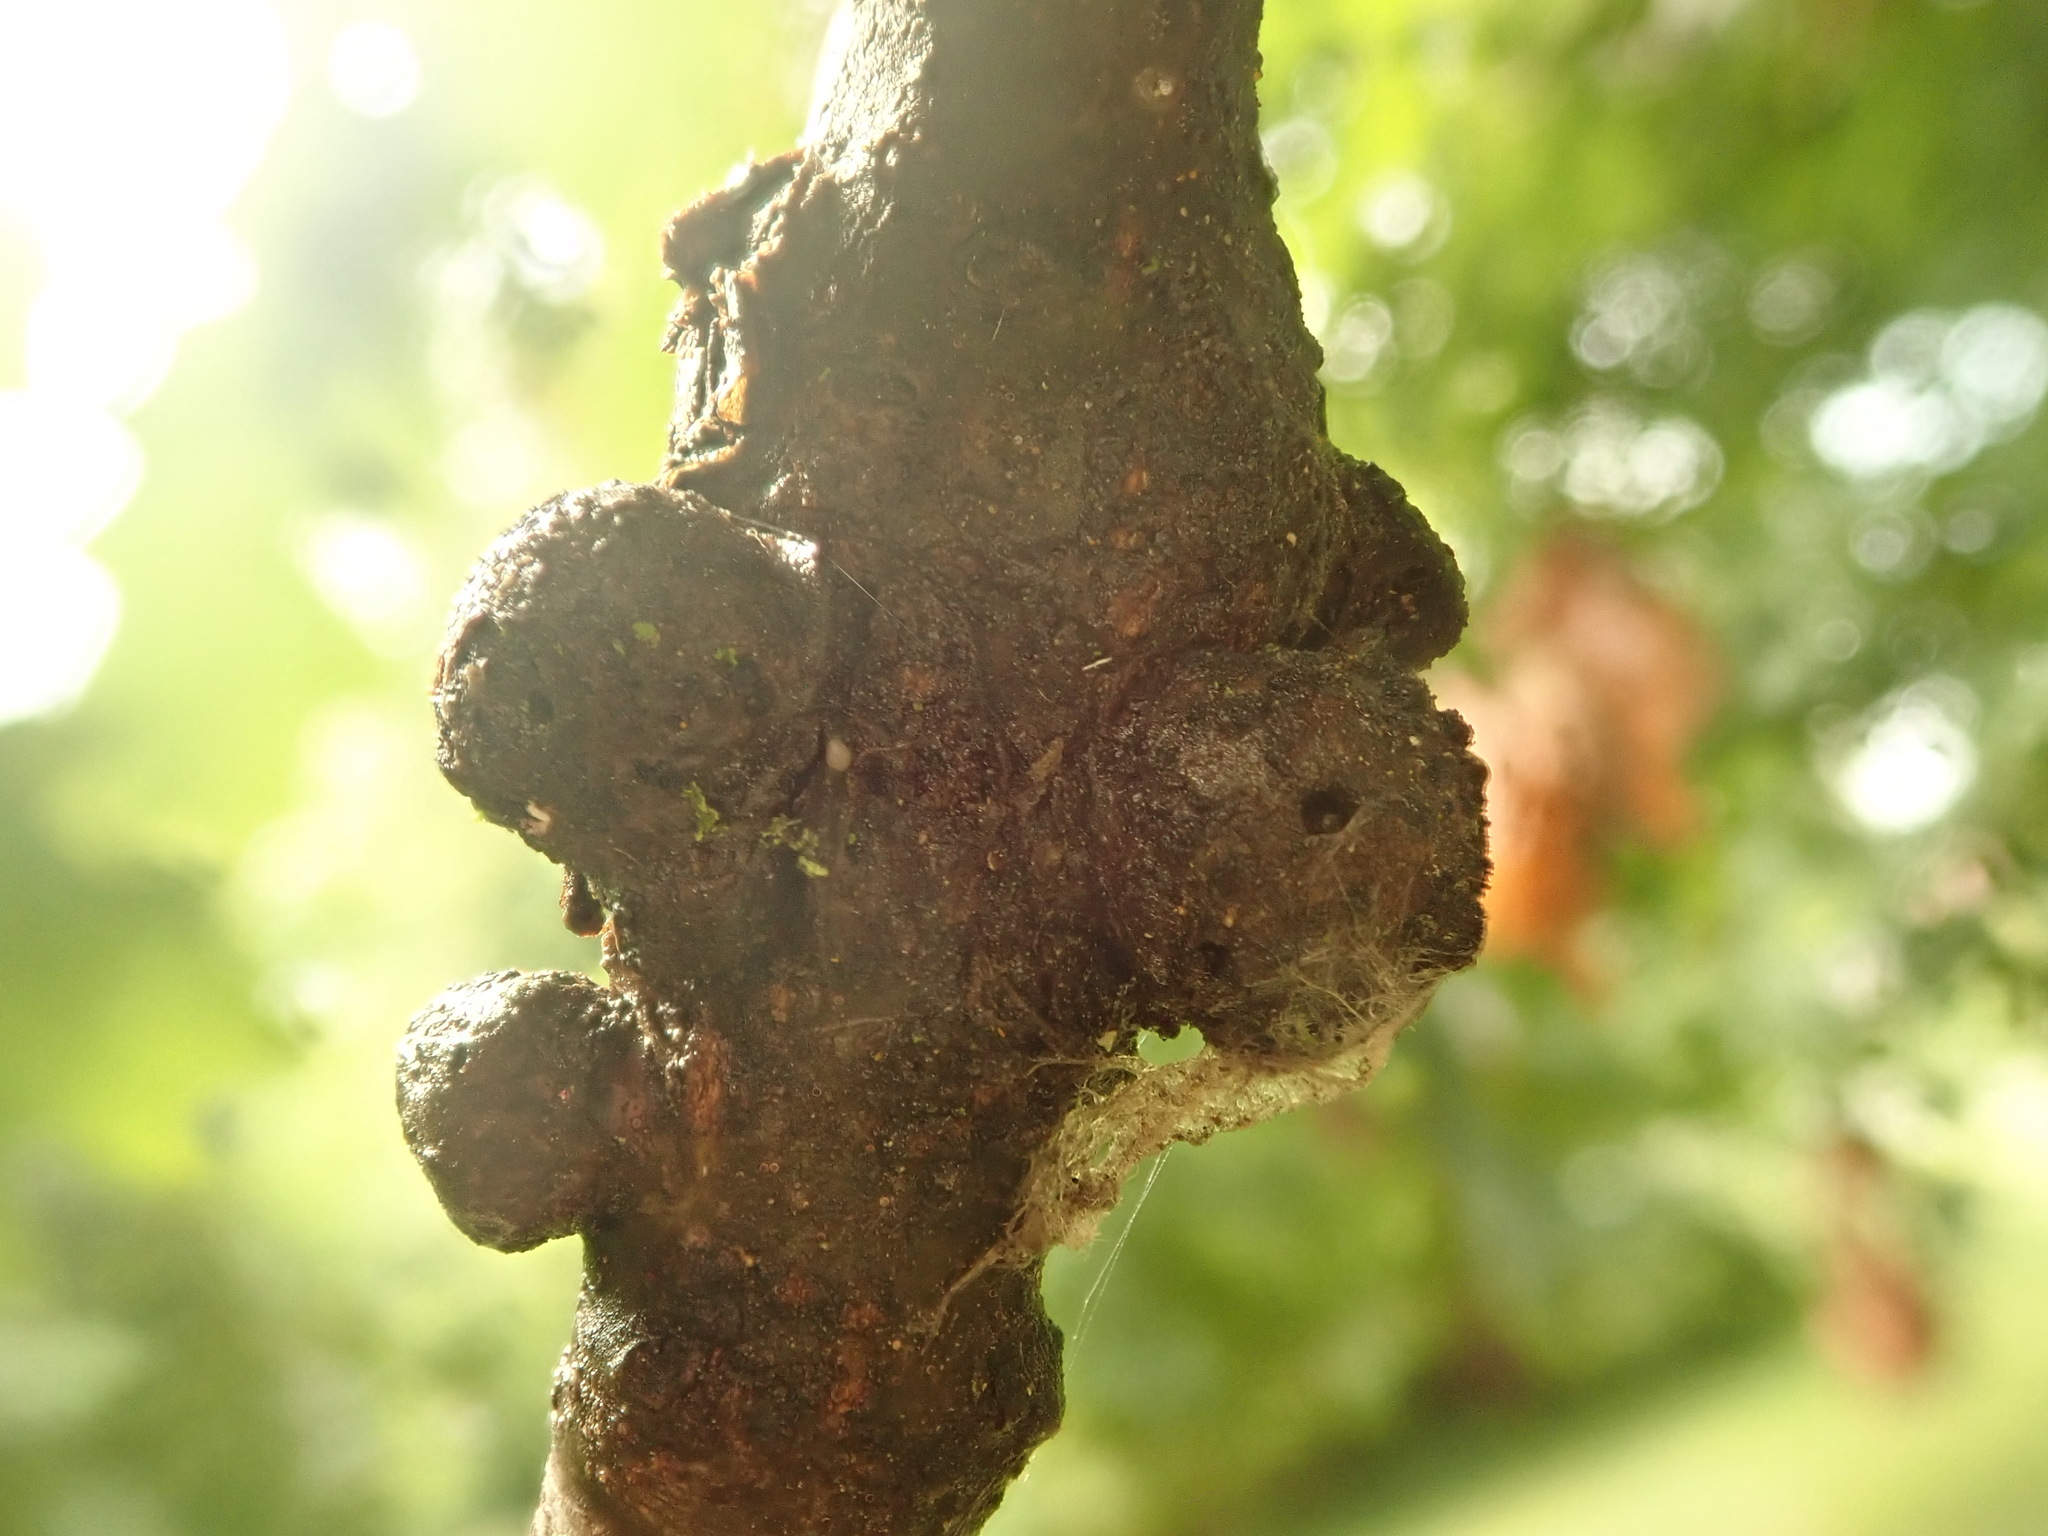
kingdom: Animalia
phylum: Arthropoda
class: Insecta
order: Hymenoptera
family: Cynipidae
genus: Callirhytis
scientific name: Callirhytis
